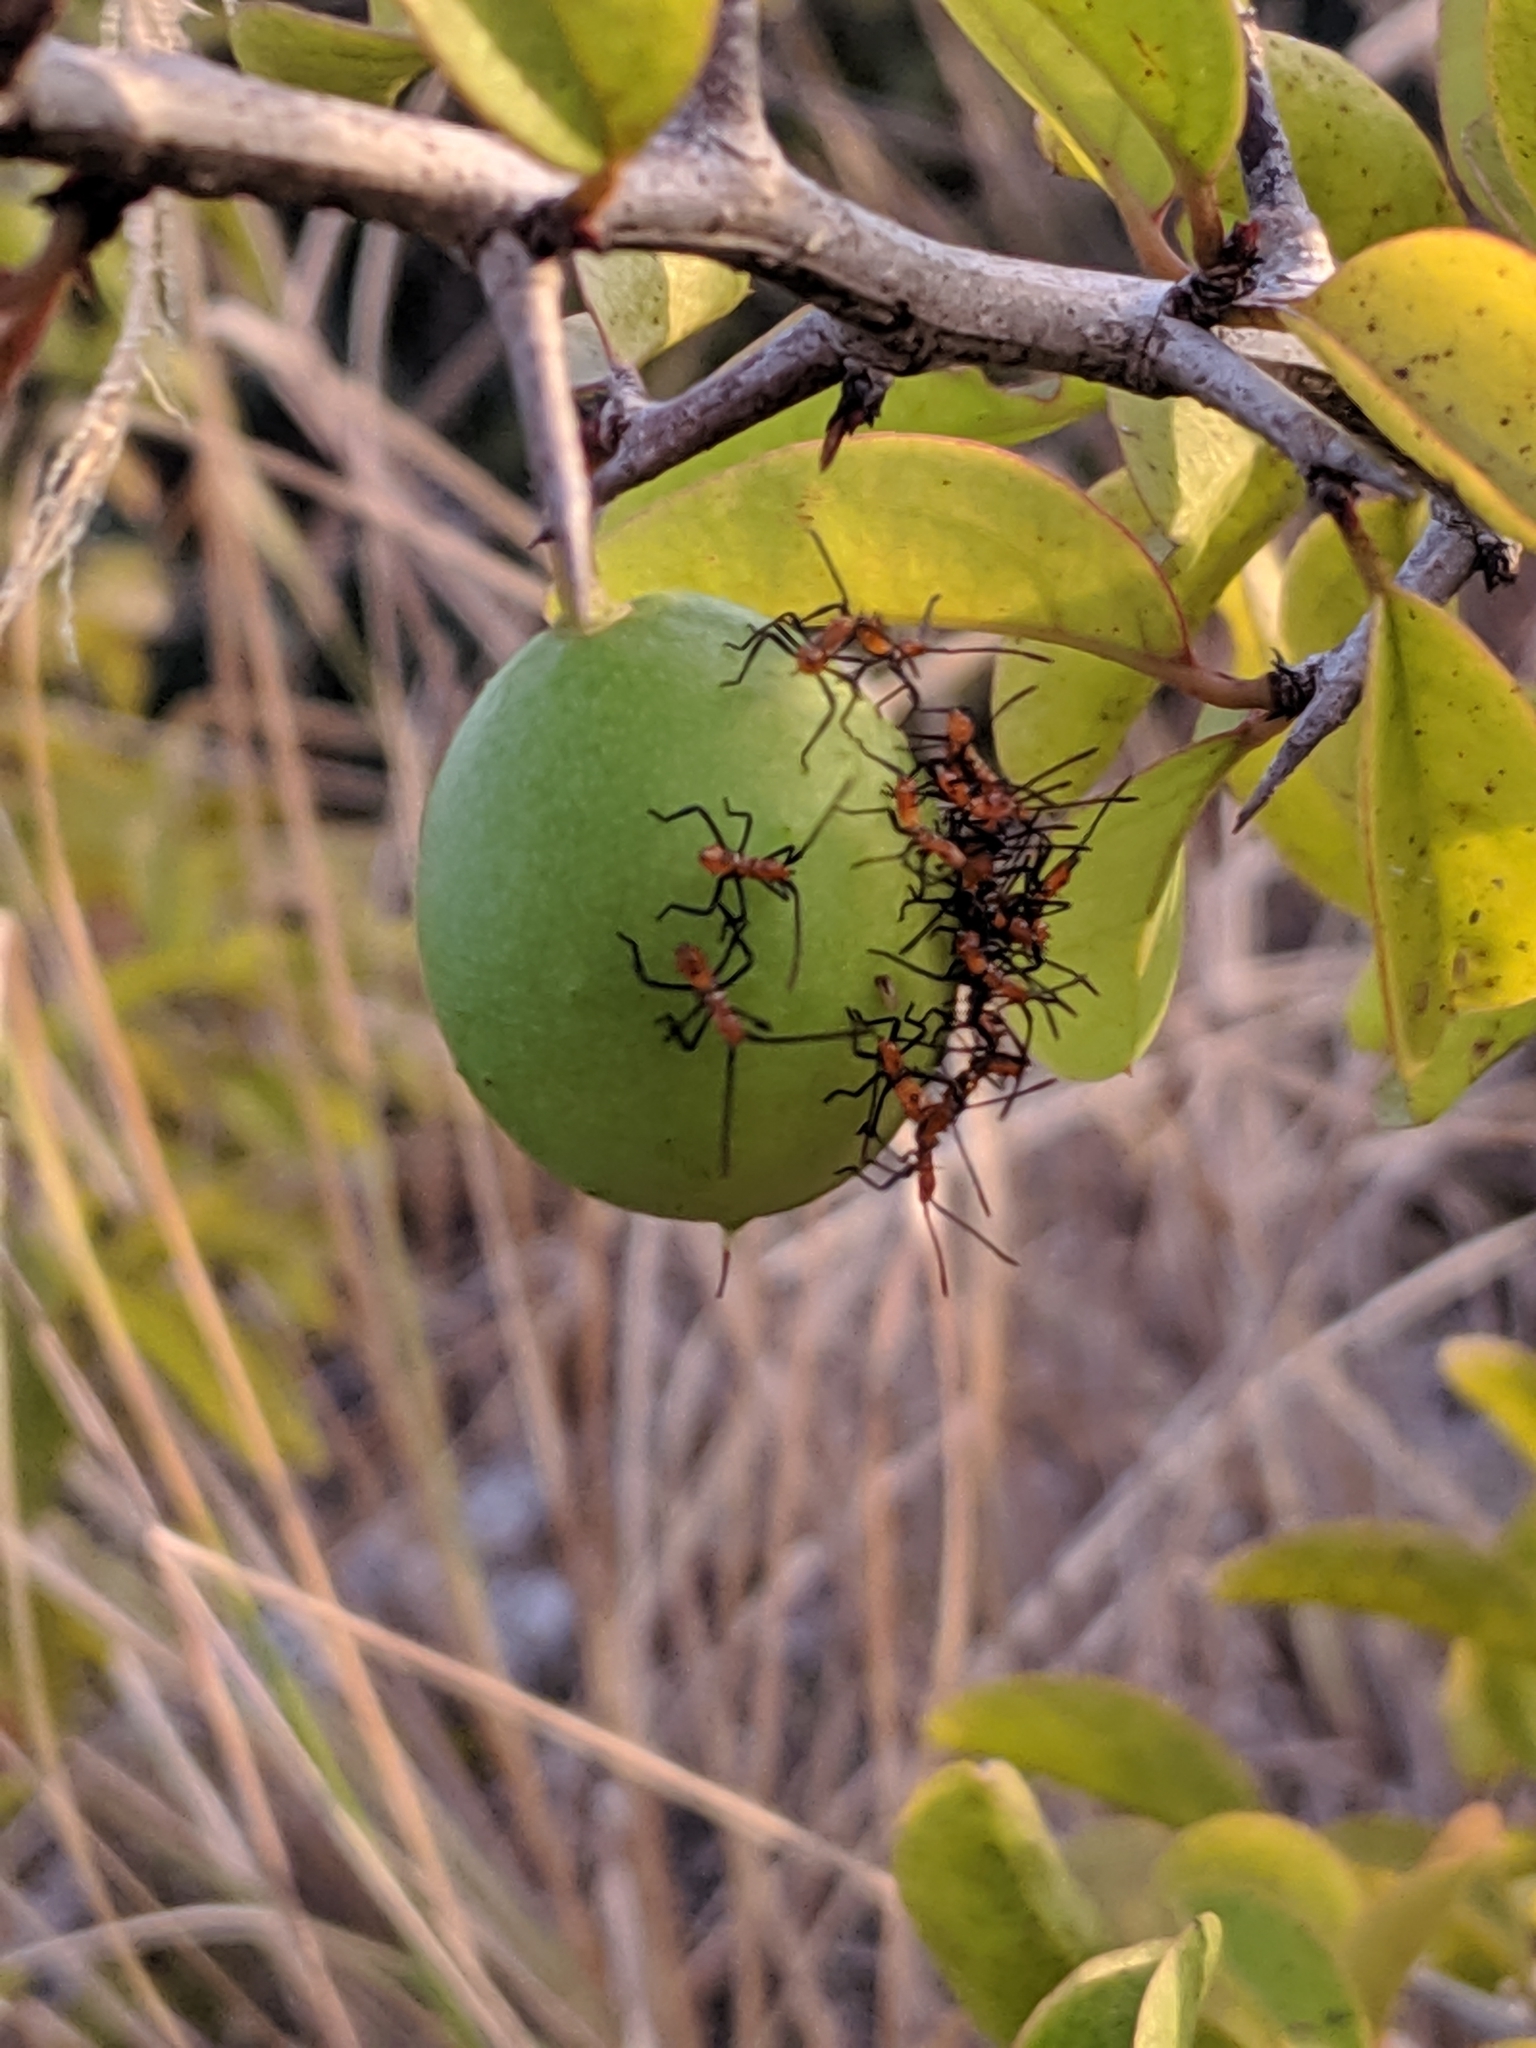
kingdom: Plantae
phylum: Tracheophyta
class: Magnoliopsida
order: Santalales
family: Ximeniaceae
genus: Ximenia
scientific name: Ximenia americana
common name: Tallowwood
